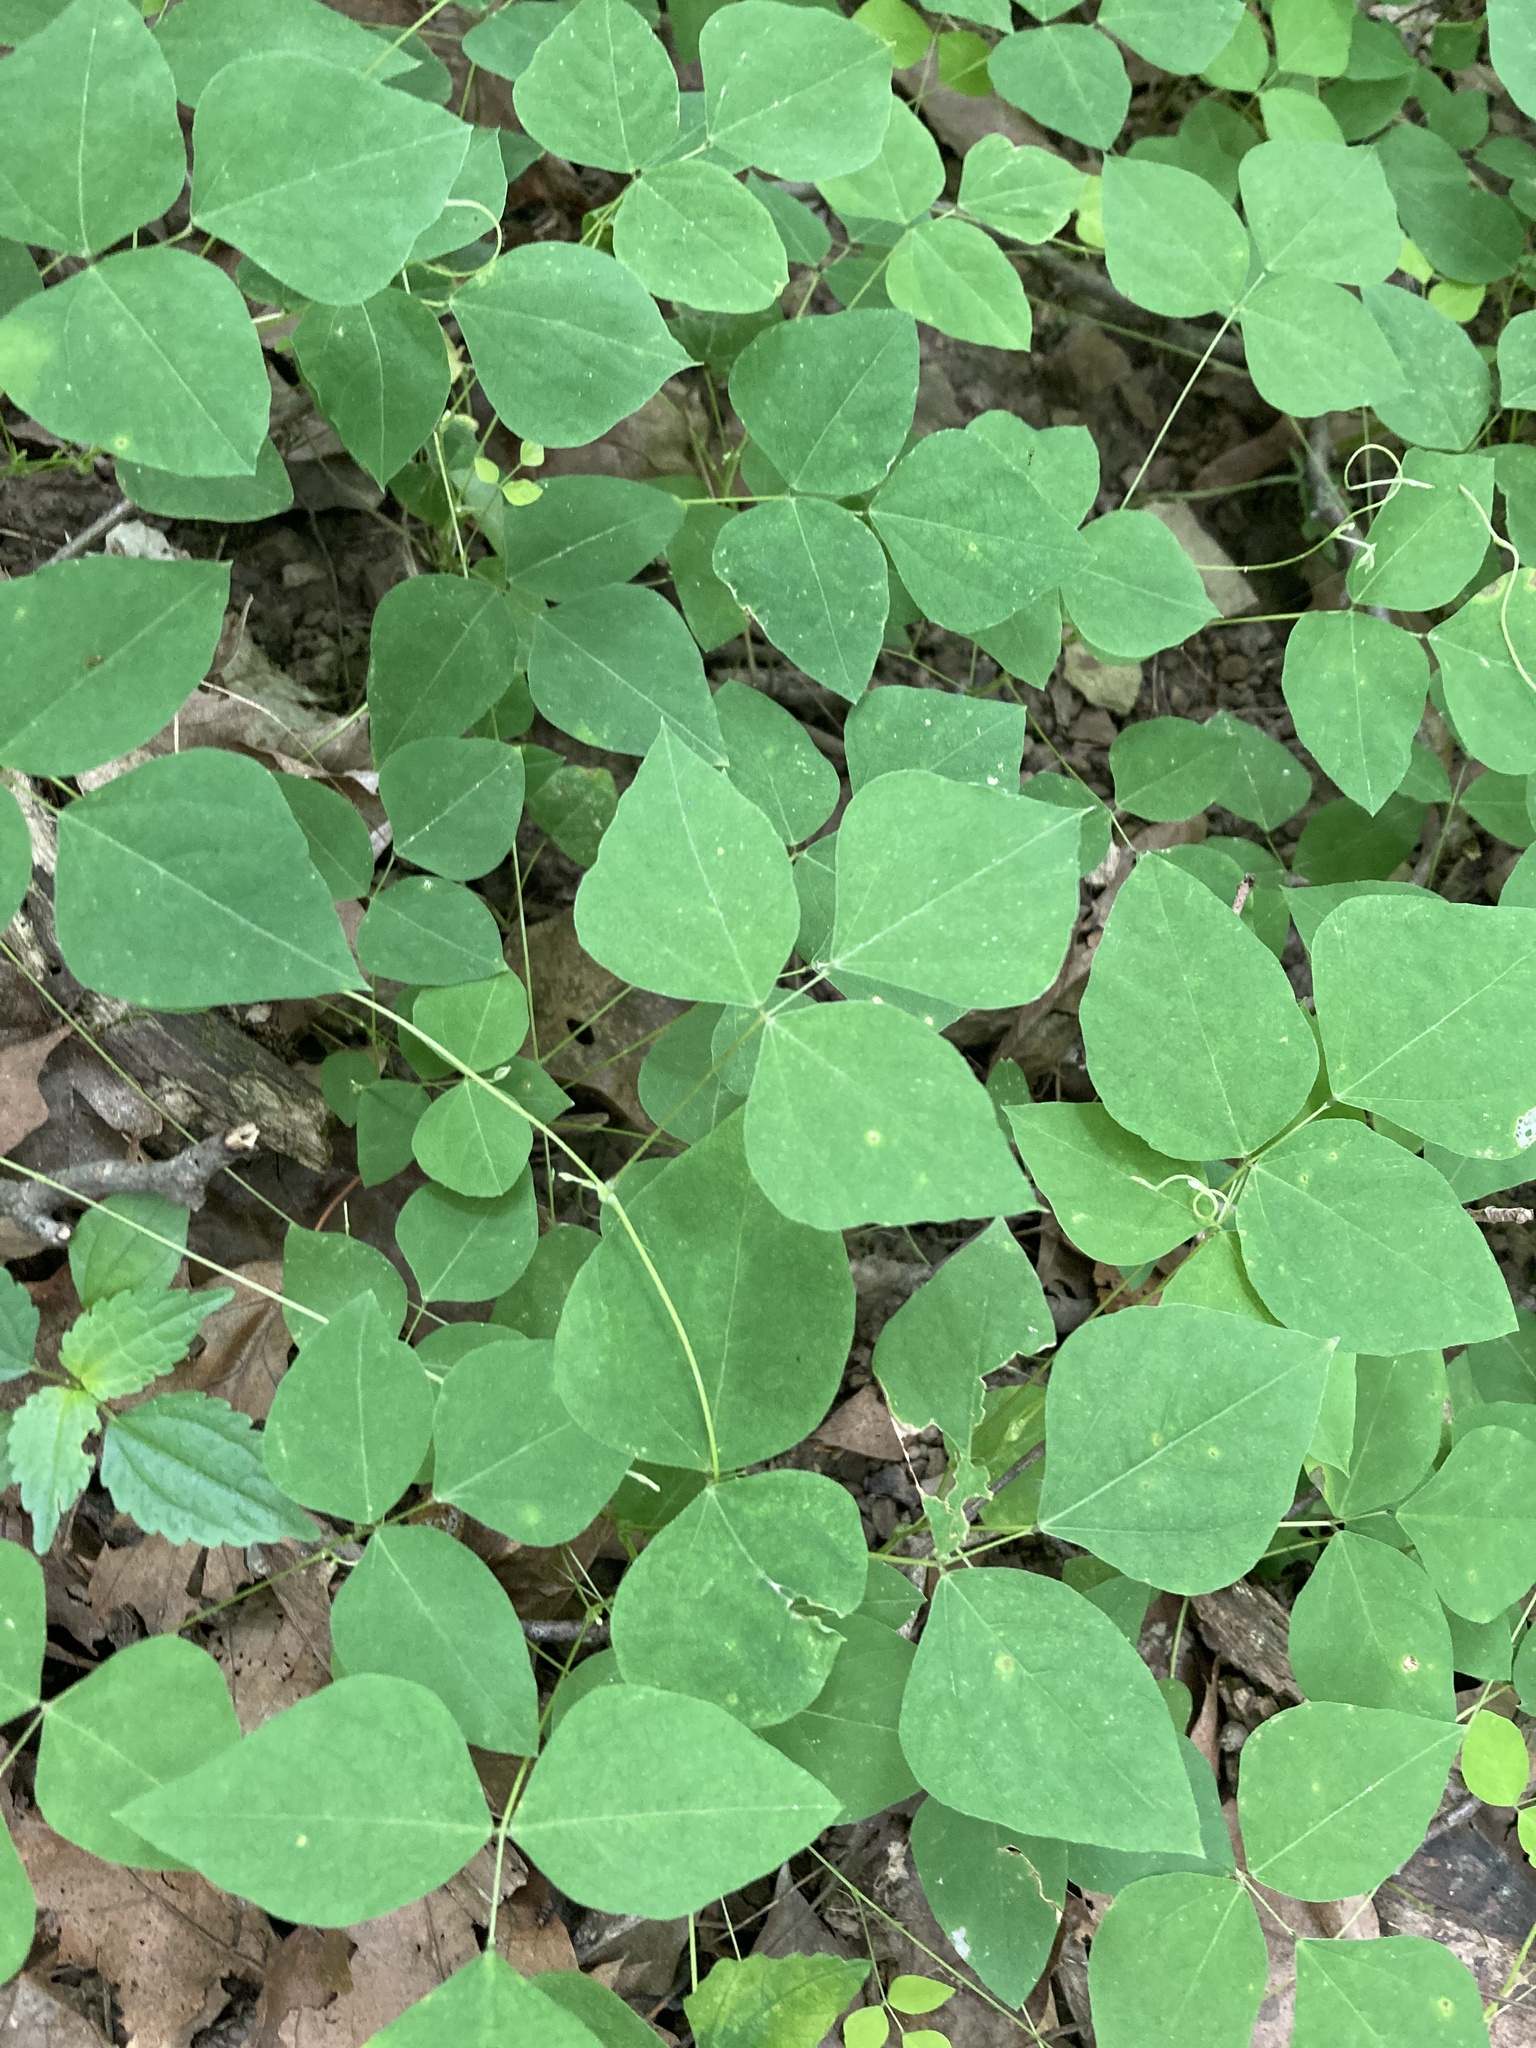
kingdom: Plantae
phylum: Tracheophyta
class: Magnoliopsida
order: Fabales
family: Fabaceae
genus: Amphicarpaea
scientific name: Amphicarpaea bracteata
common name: American hog peanut
